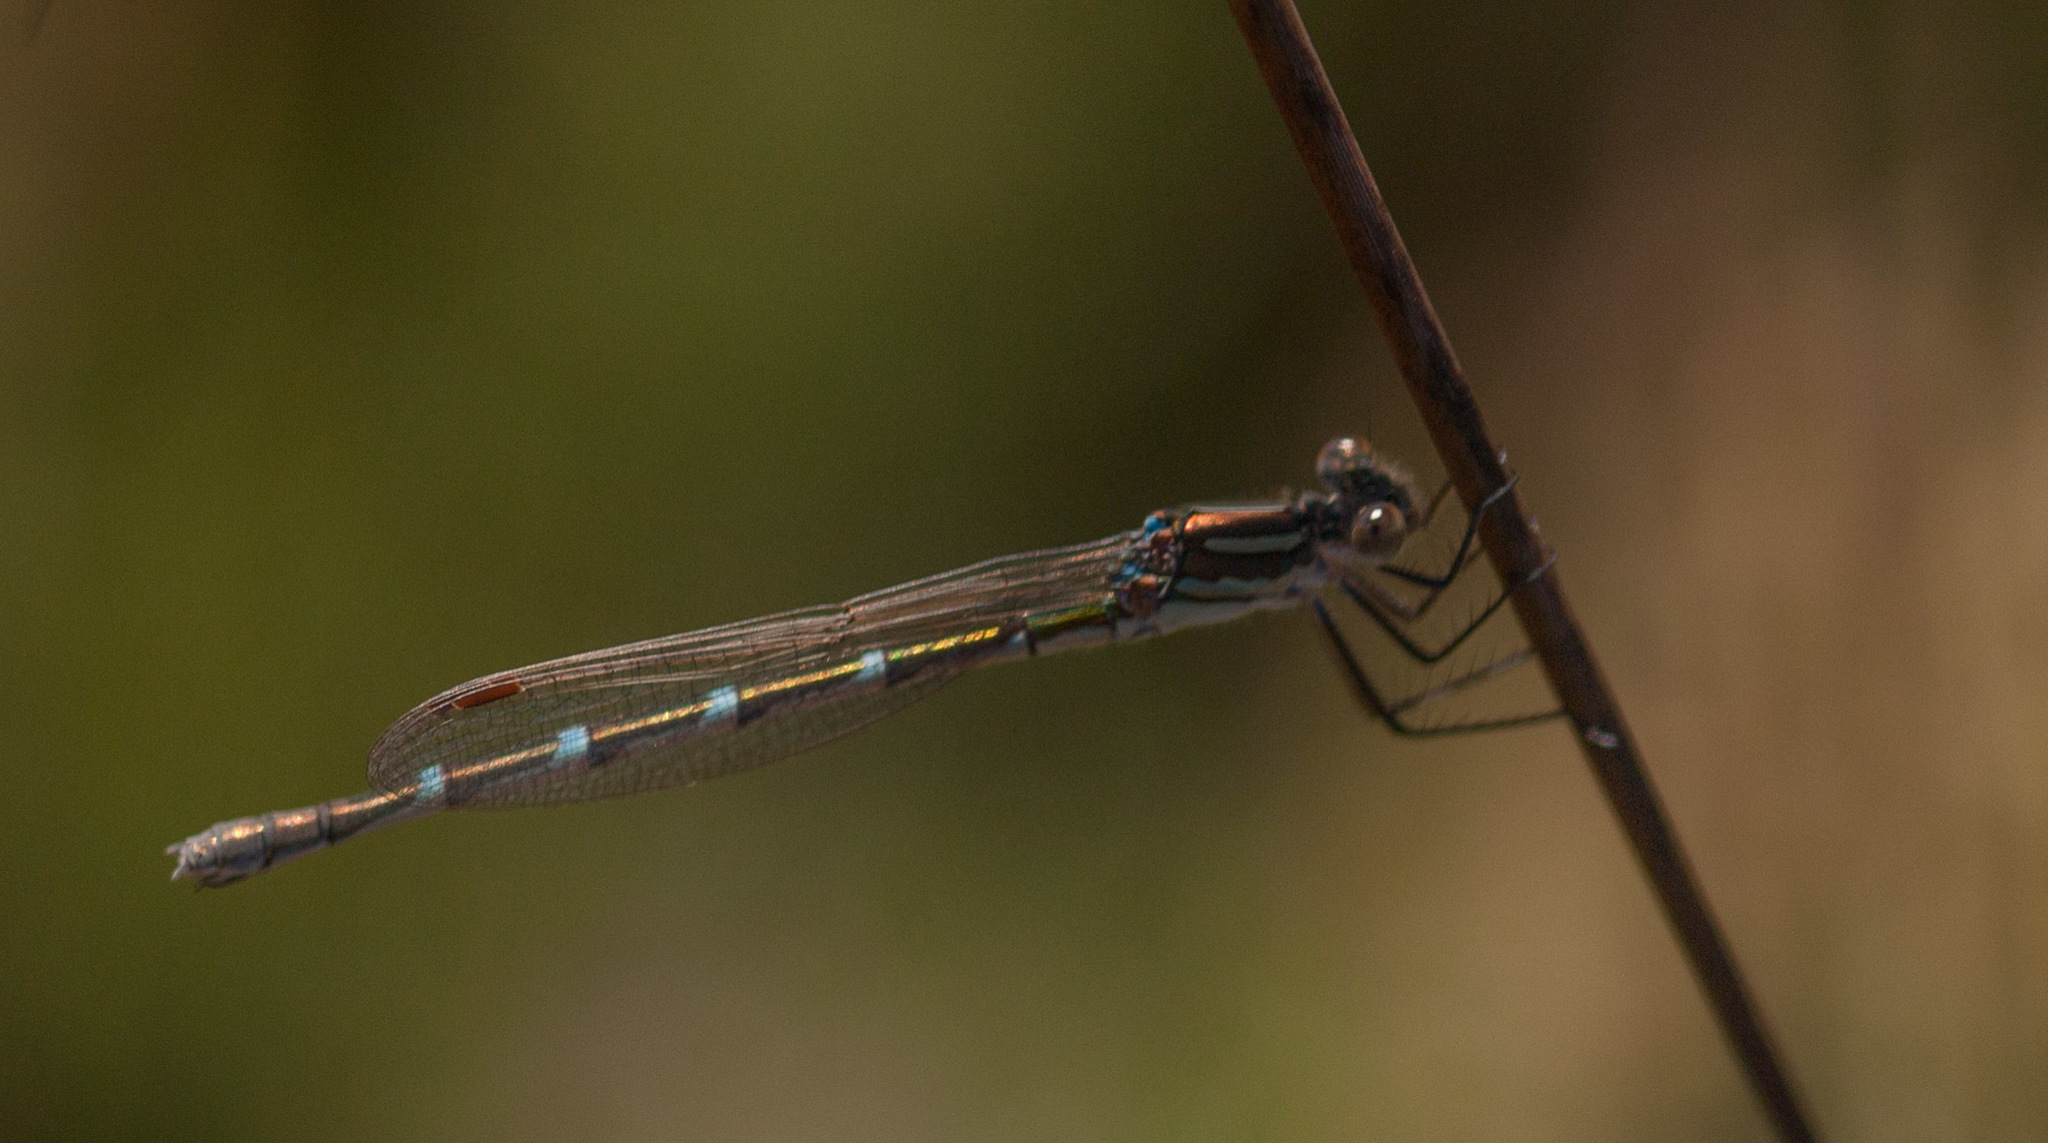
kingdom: Animalia
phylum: Arthropoda
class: Insecta
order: Odonata
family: Lestidae
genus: Austrolestes
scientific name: Austrolestes annulosus
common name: Blue ringtail
